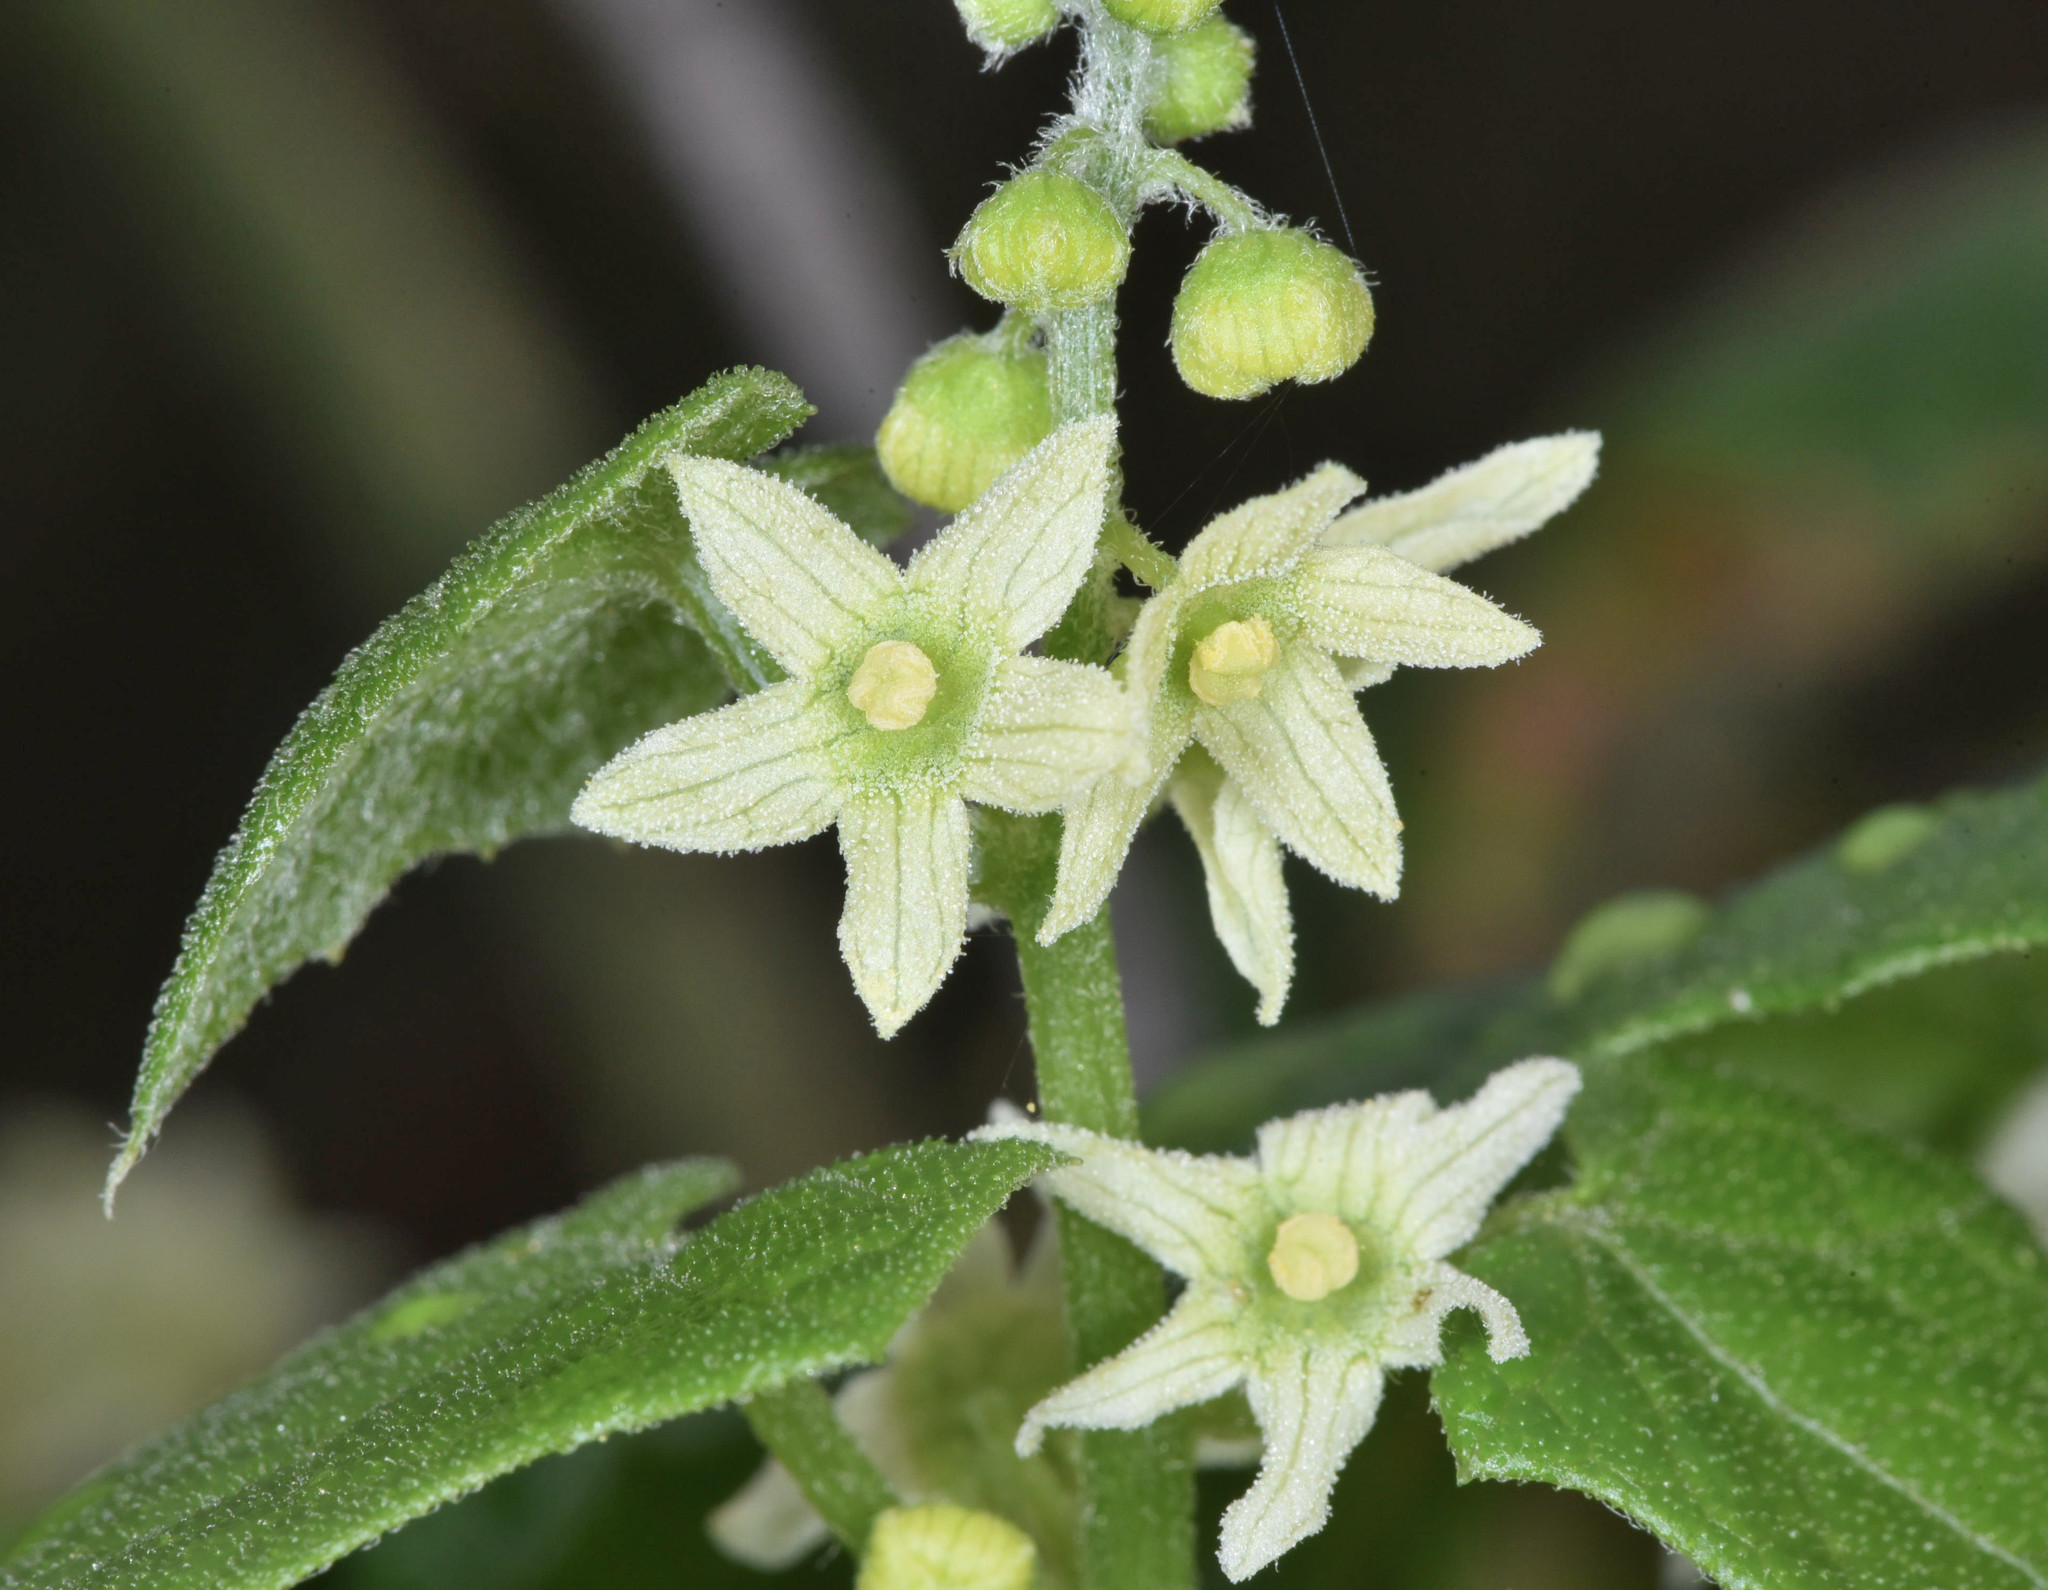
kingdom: Plantae
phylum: Tracheophyta
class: Magnoliopsida
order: Cucurbitales
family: Cucurbitaceae
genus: Marah
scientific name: Marah fabacea
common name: California manroot
